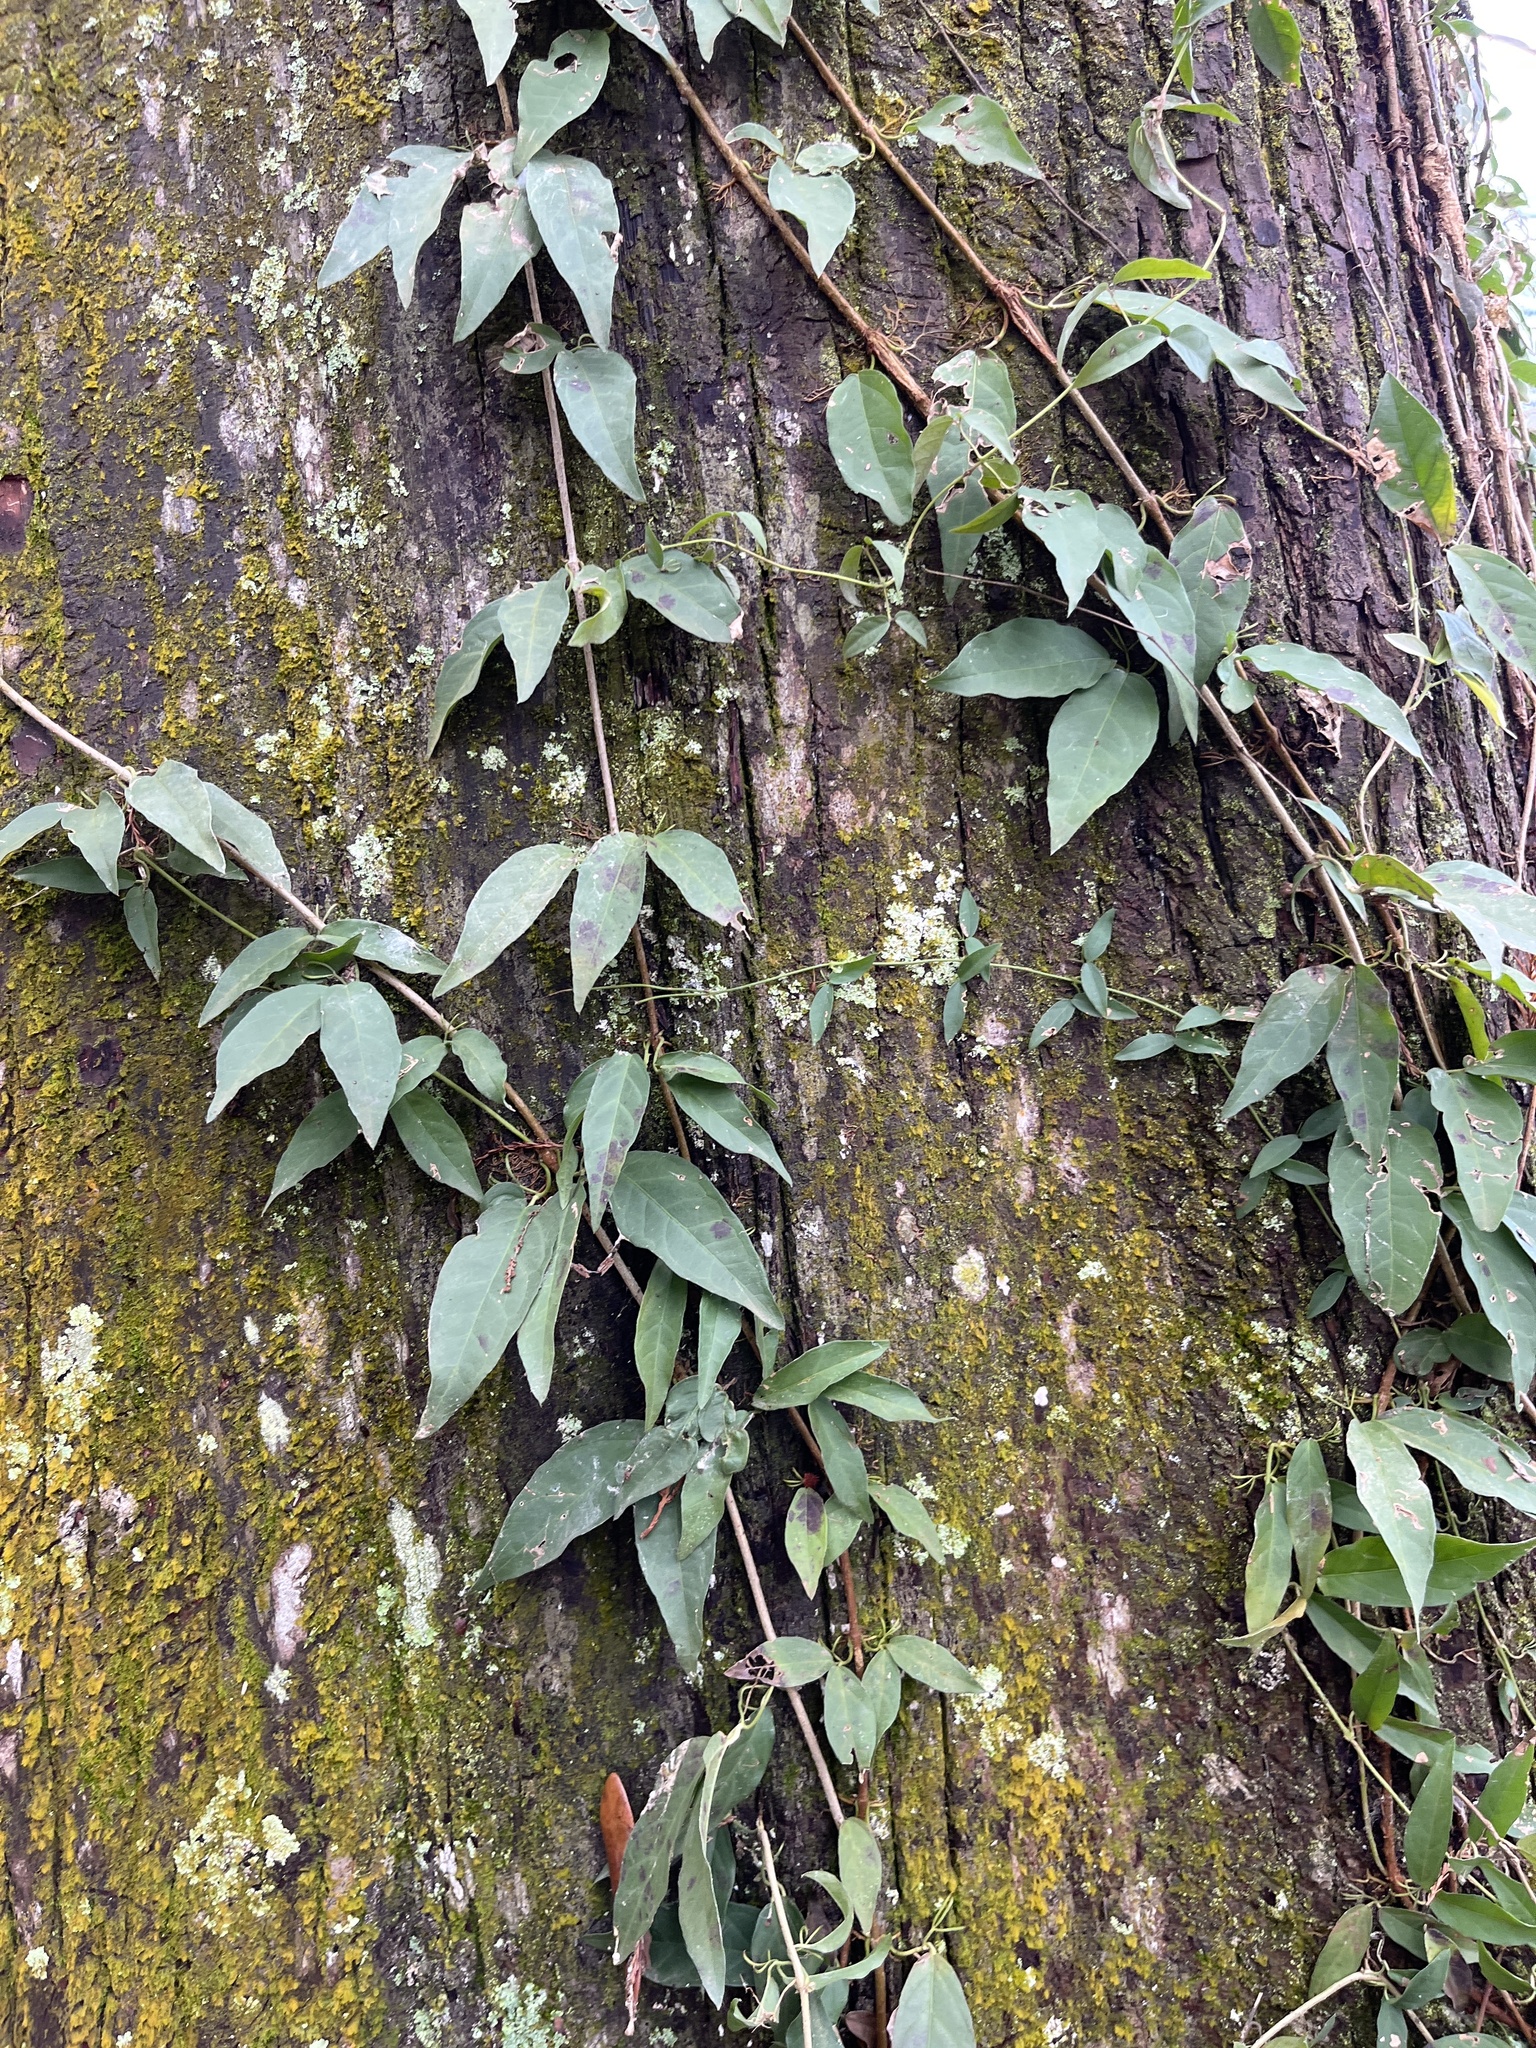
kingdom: Plantae
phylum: Tracheophyta
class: Magnoliopsida
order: Lamiales
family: Bignoniaceae
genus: Dolichandra
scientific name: Dolichandra unguis-cati
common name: Catclaw vine
